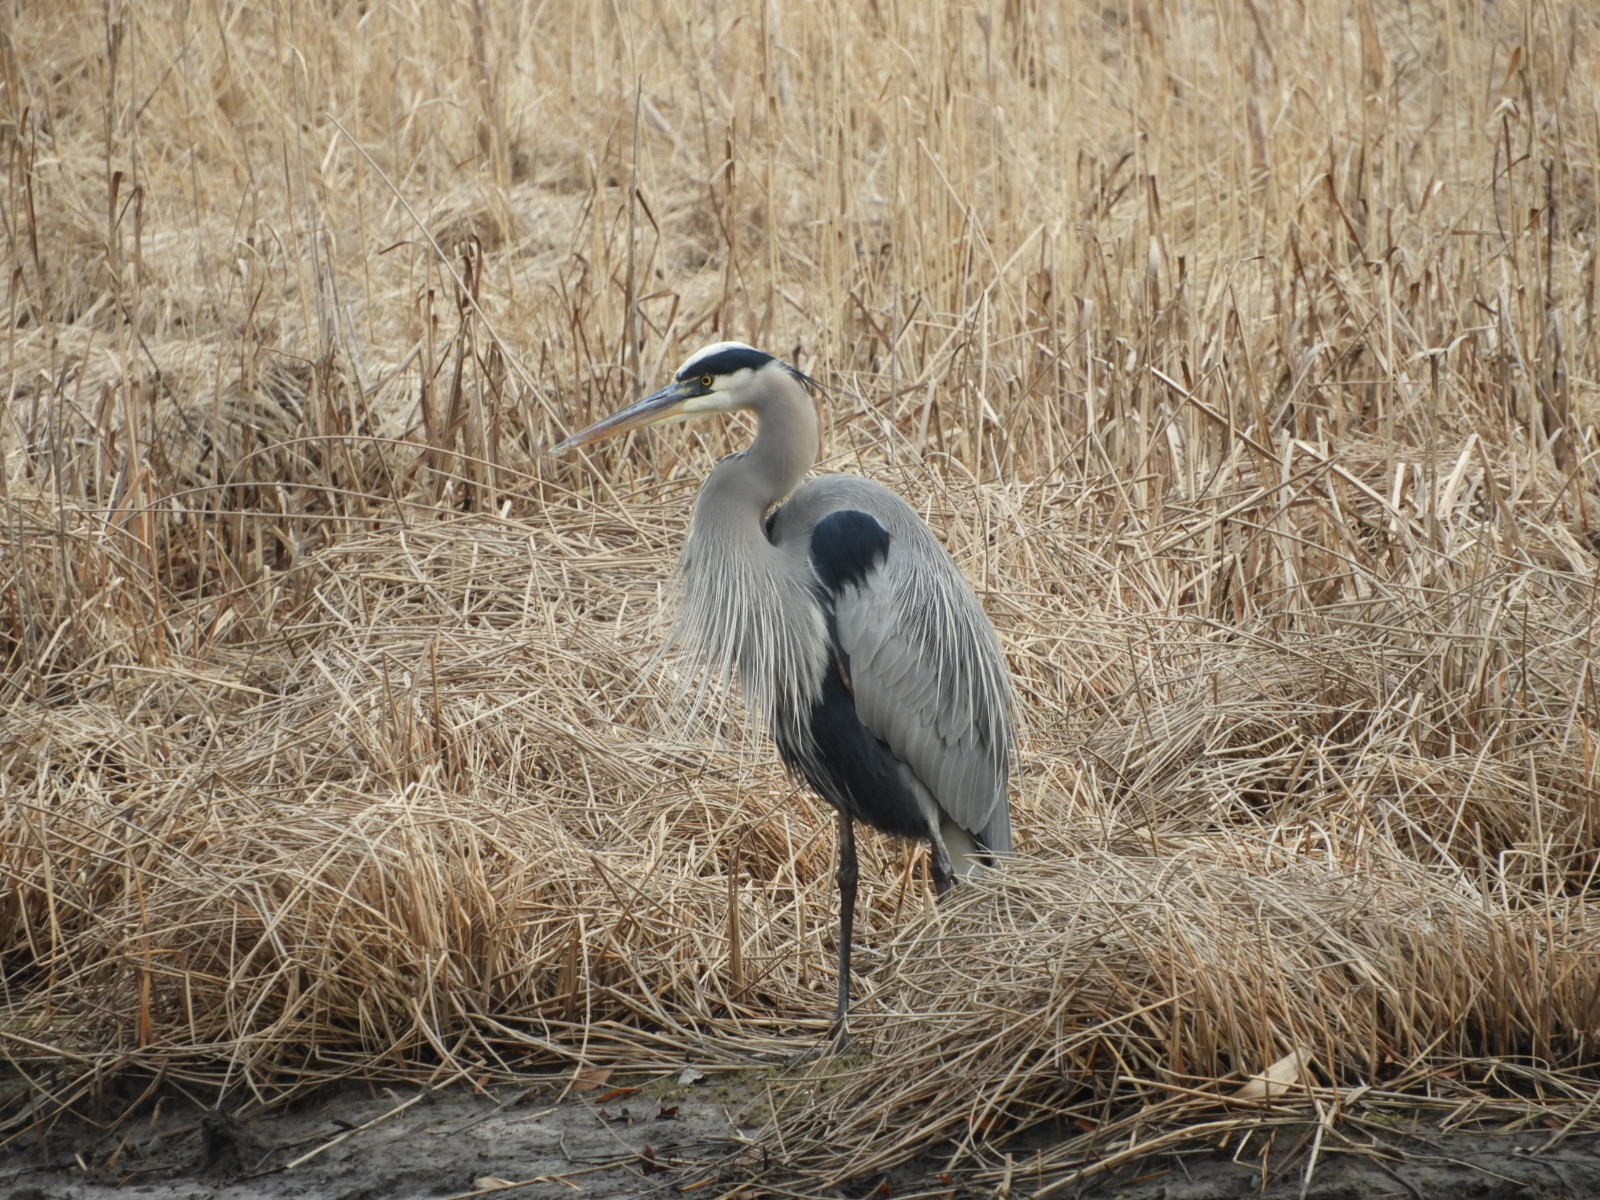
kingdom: Animalia
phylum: Chordata
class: Aves
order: Pelecaniformes
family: Ardeidae
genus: Ardea
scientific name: Ardea herodias
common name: Great blue heron
